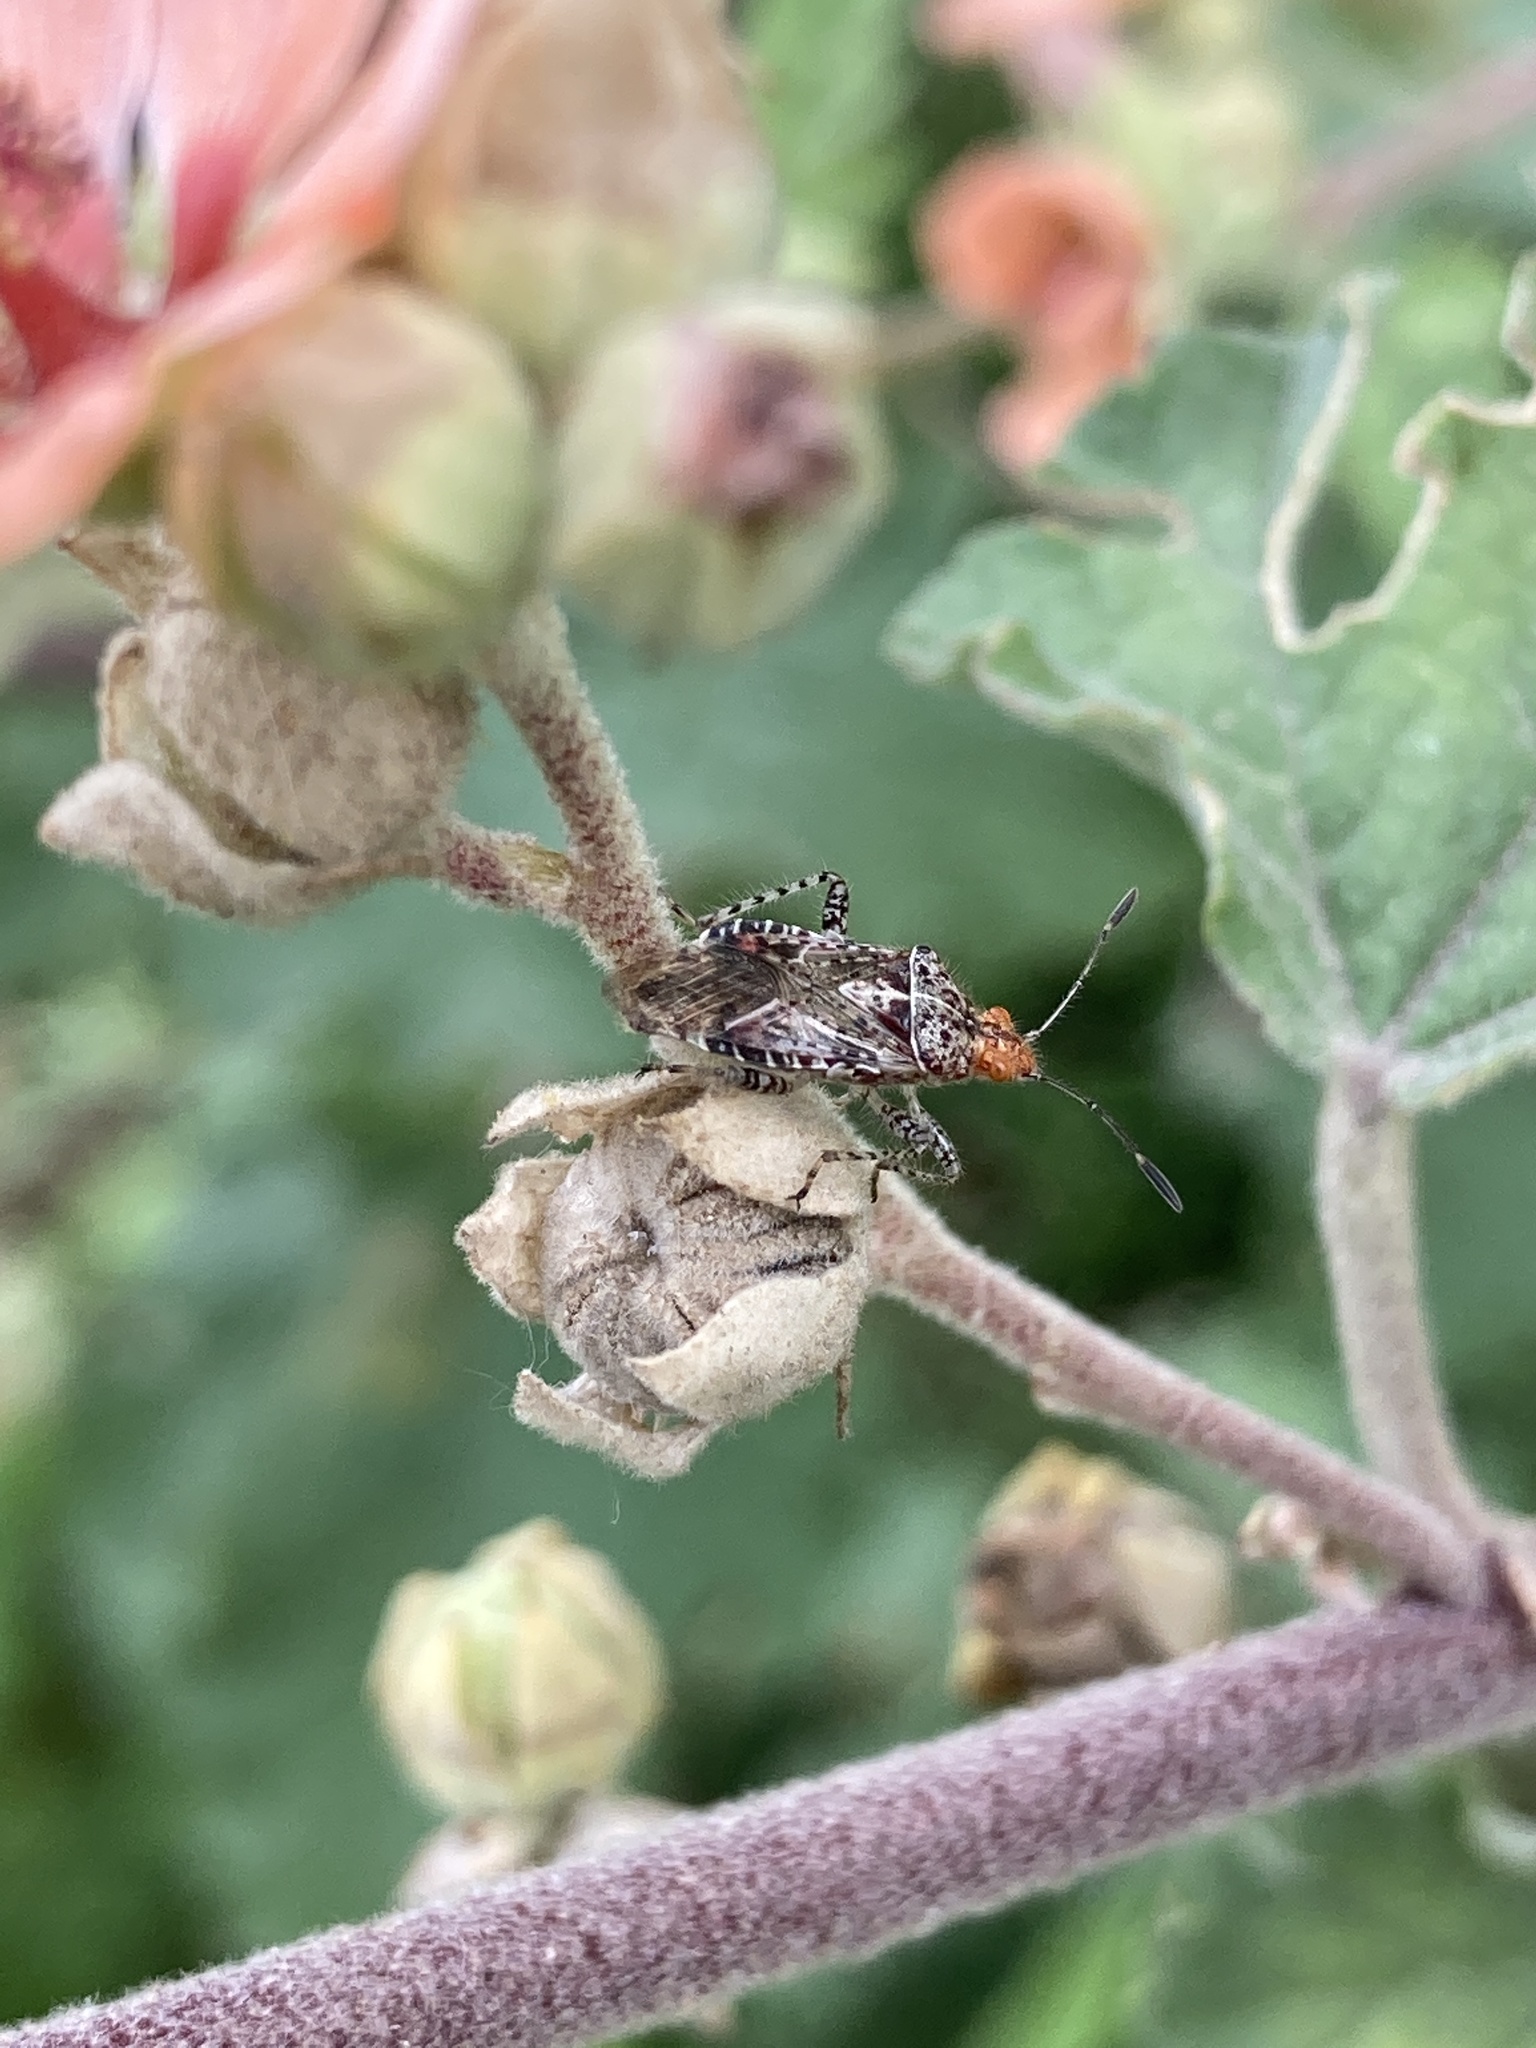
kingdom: Animalia
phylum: Arthropoda
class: Insecta
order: Hemiptera
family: Rhopalidae
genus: Niesthrea
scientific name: Niesthrea
